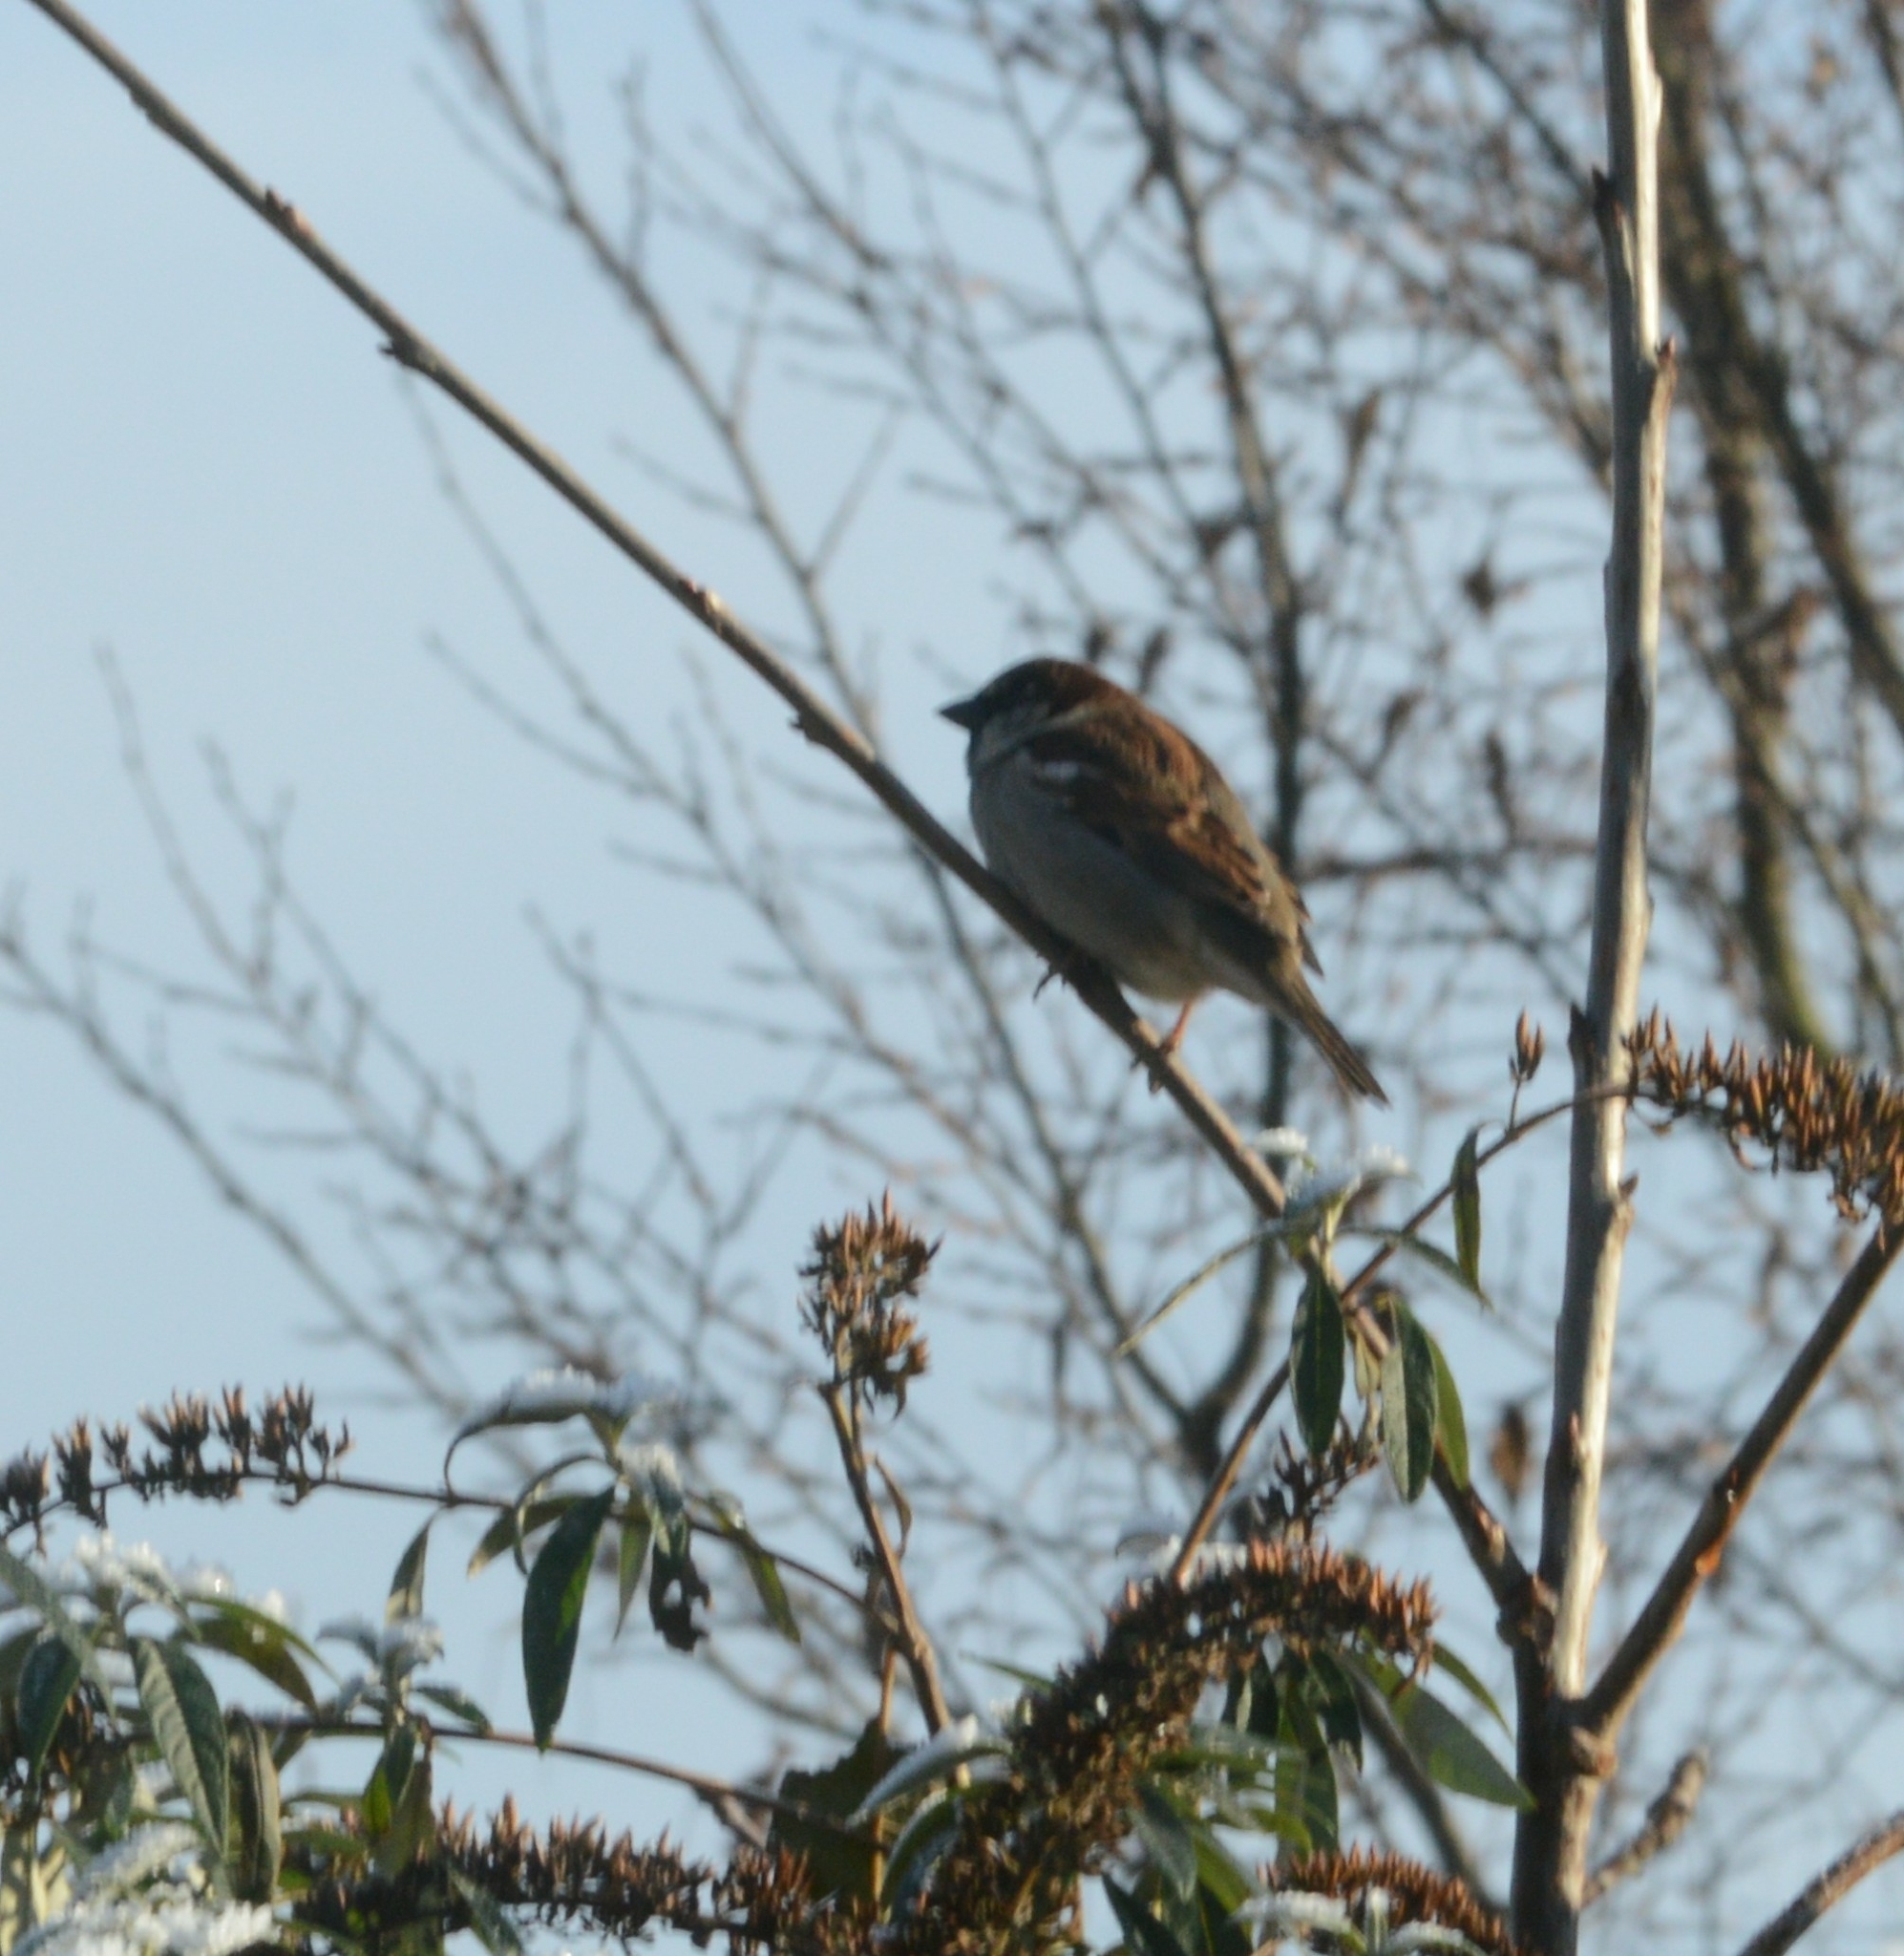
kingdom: Animalia
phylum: Chordata
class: Aves
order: Passeriformes
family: Passeridae
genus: Passer
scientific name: Passer domesticus
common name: House sparrow
